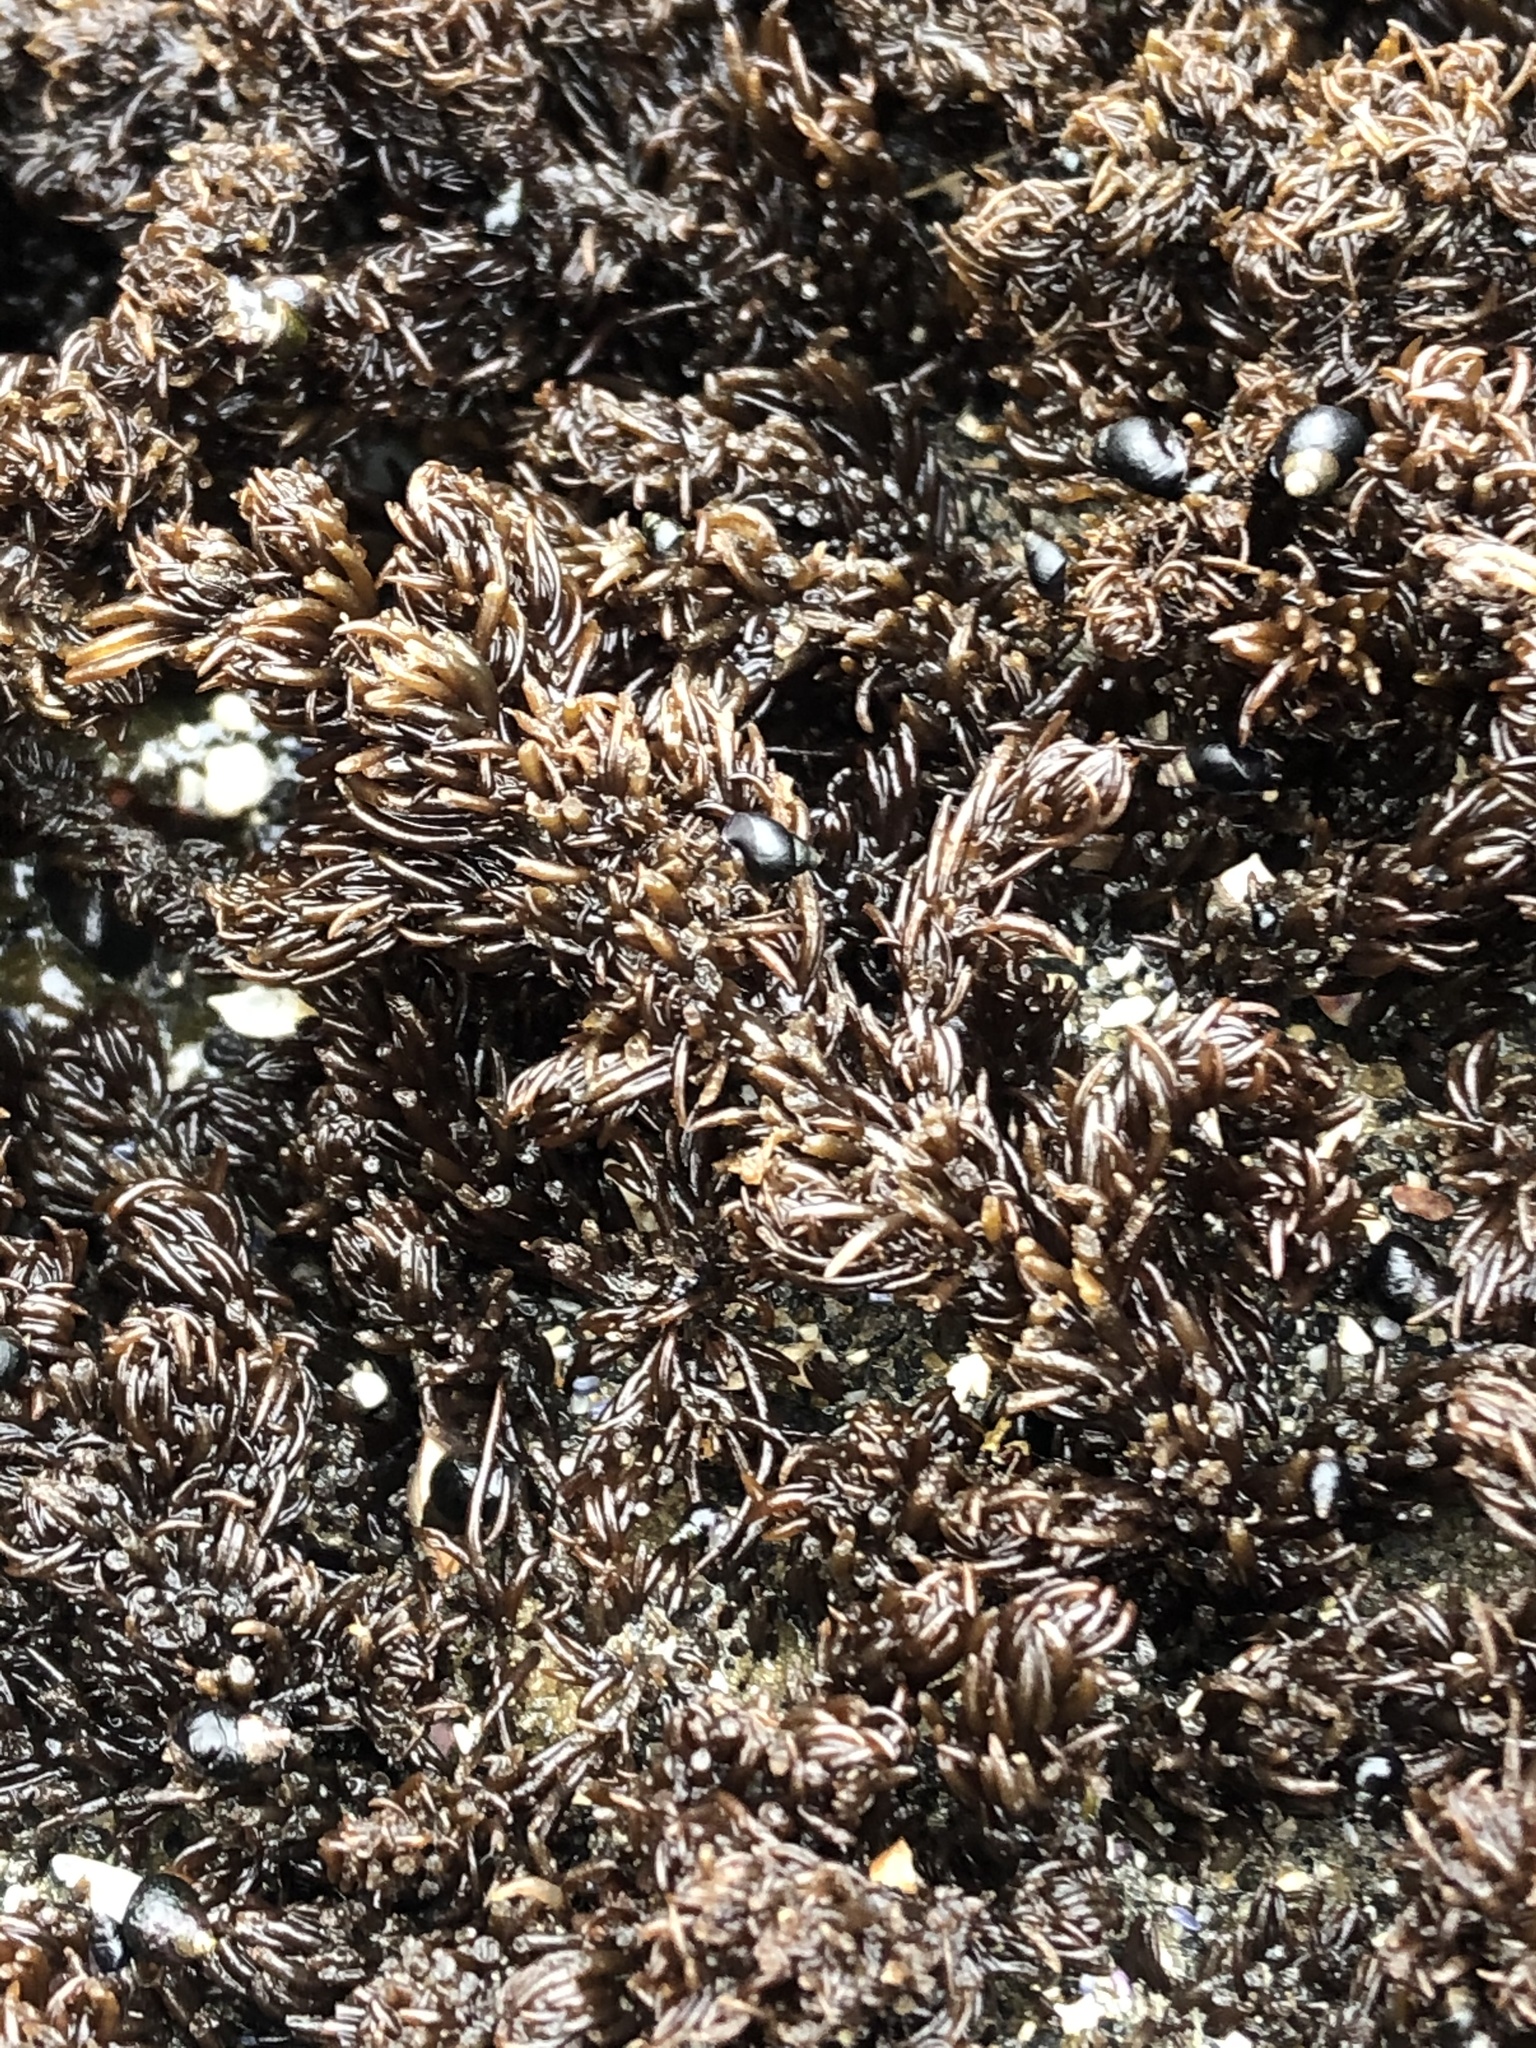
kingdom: Plantae
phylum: Rhodophyta
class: Florideophyceae
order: Ceramiales
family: Rhodomelaceae
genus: Neorhodomela
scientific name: Neorhodomela larix
